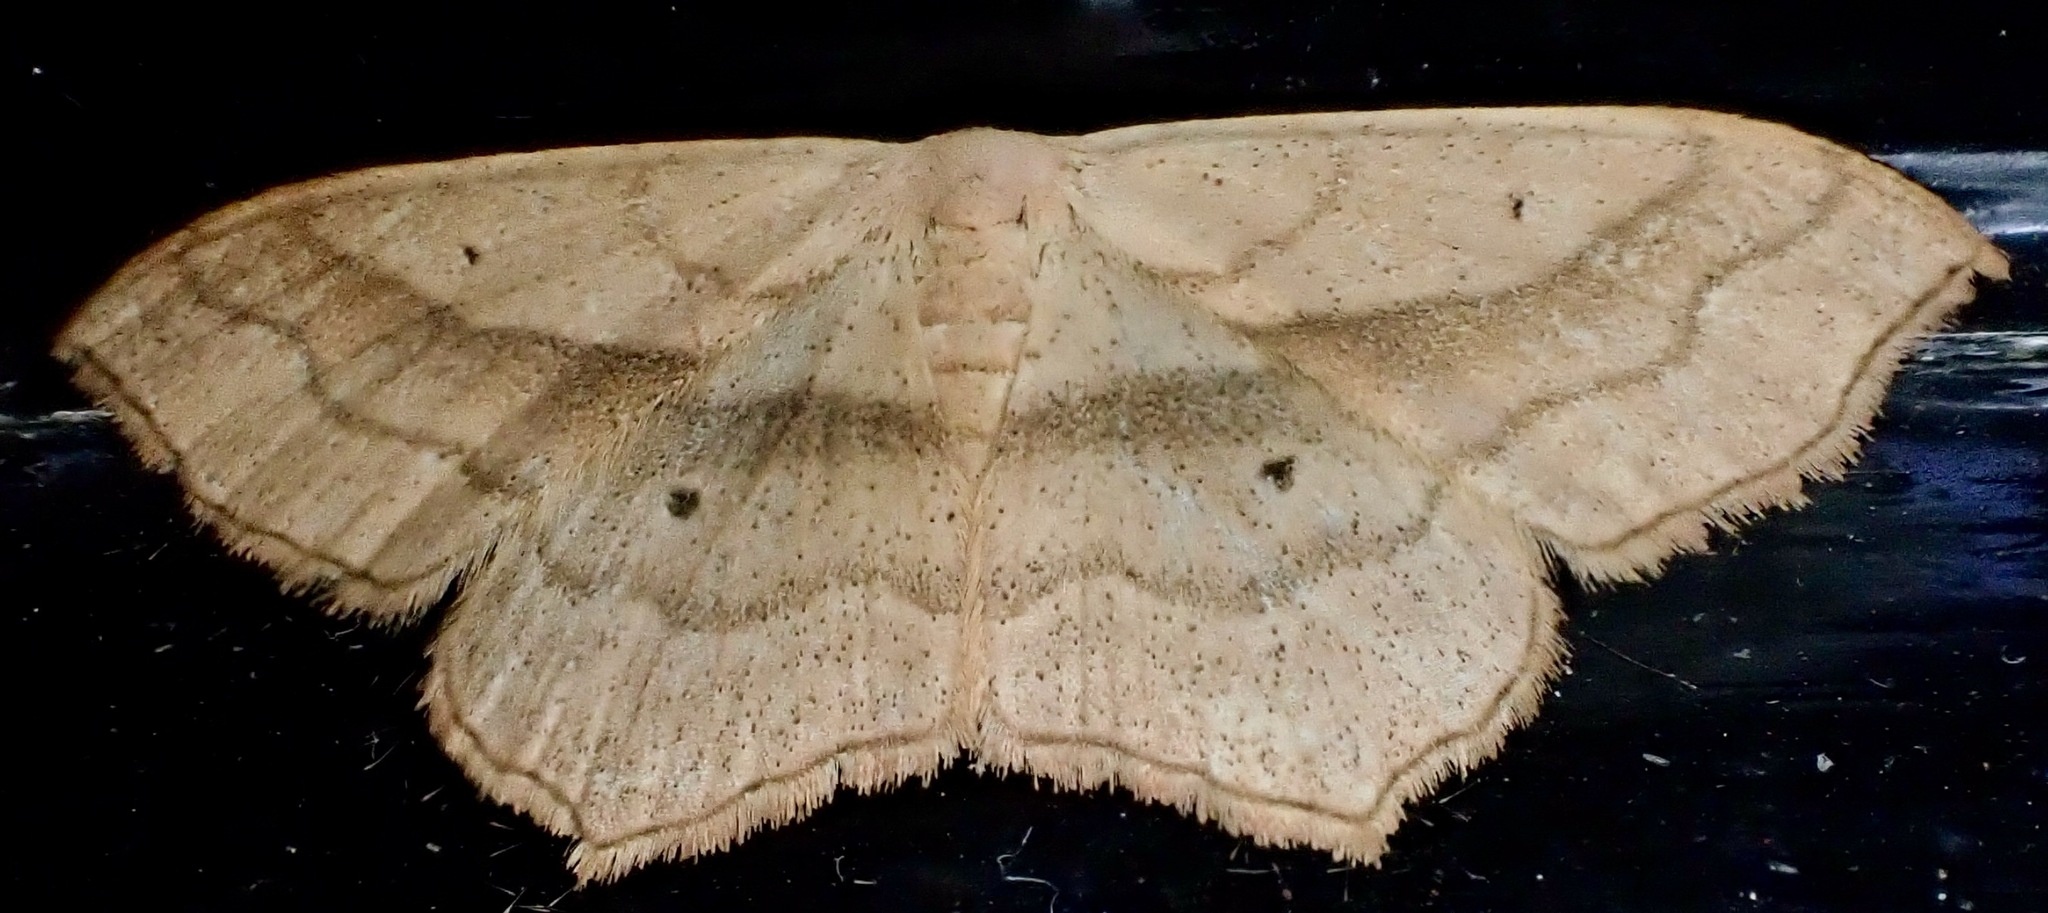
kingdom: Animalia
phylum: Arthropoda
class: Insecta
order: Lepidoptera
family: Geometridae
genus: Scopula
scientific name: Scopula imitaria
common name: Small blood-vein
